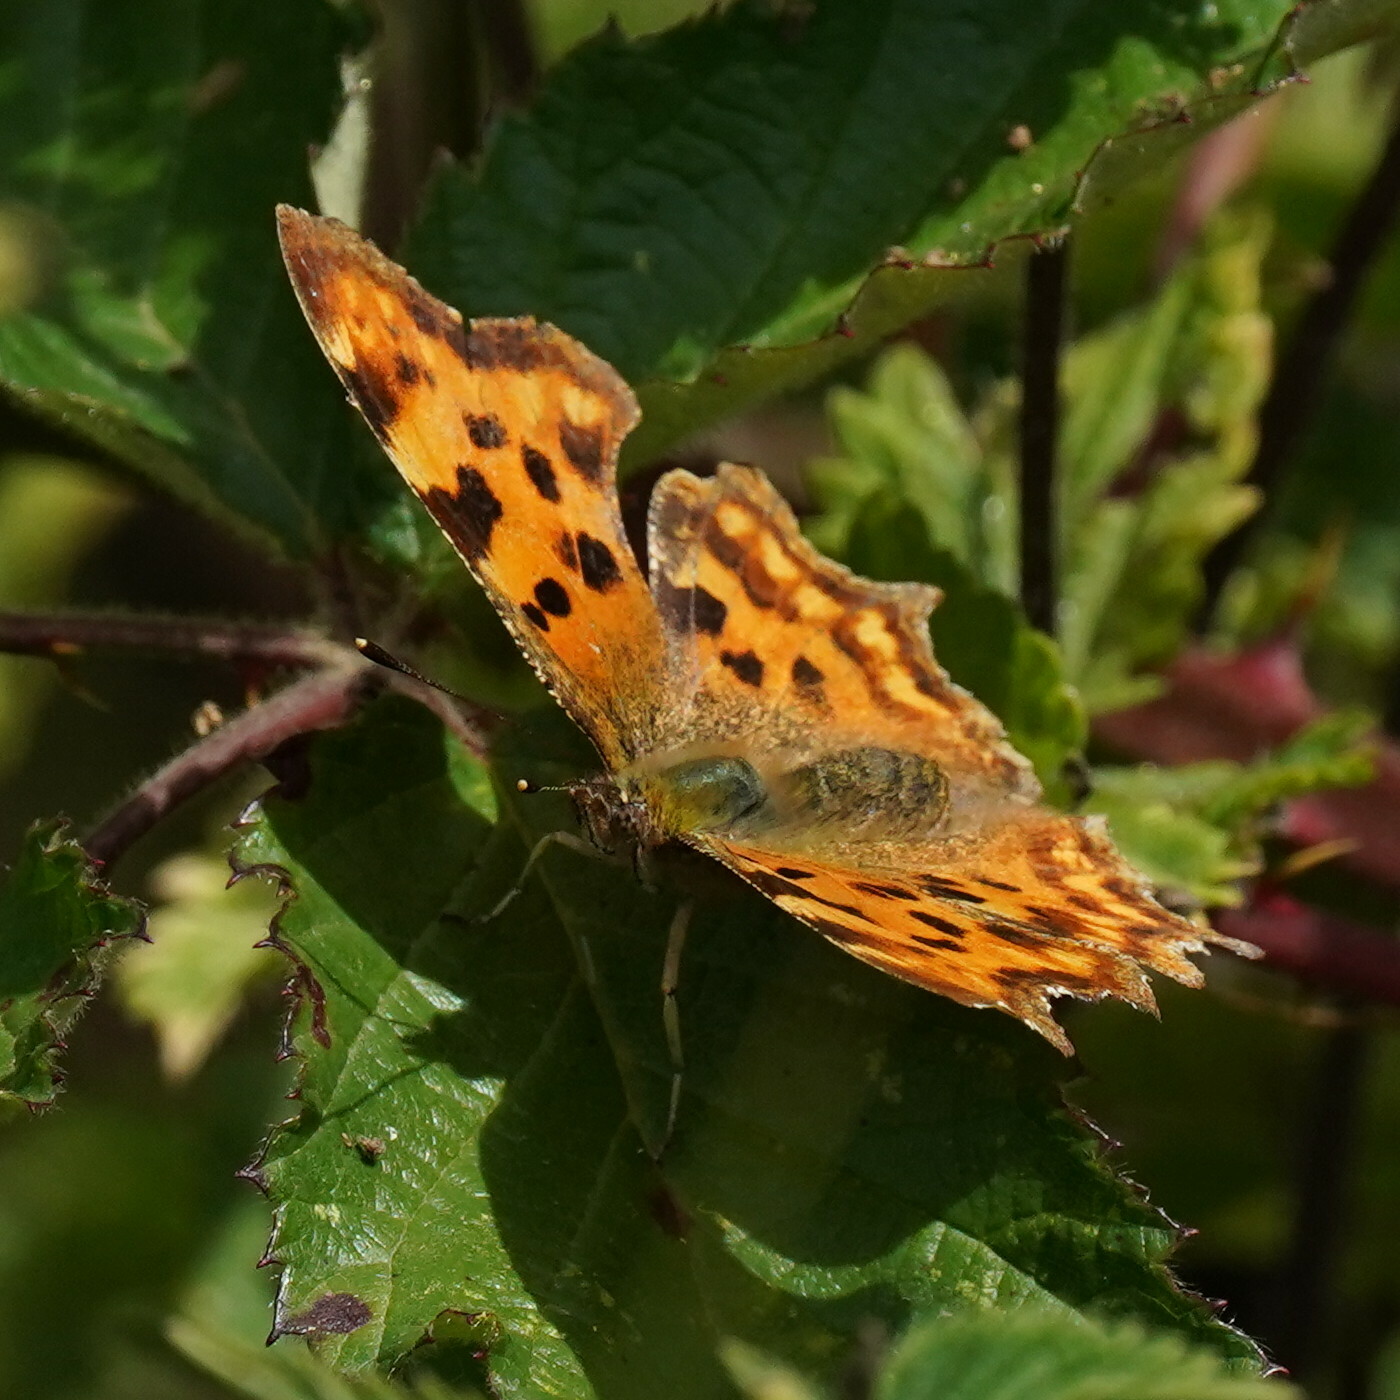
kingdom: Animalia
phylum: Arthropoda
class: Insecta
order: Lepidoptera
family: Nymphalidae
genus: Polygonia
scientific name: Polygonia c-album
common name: Comma
